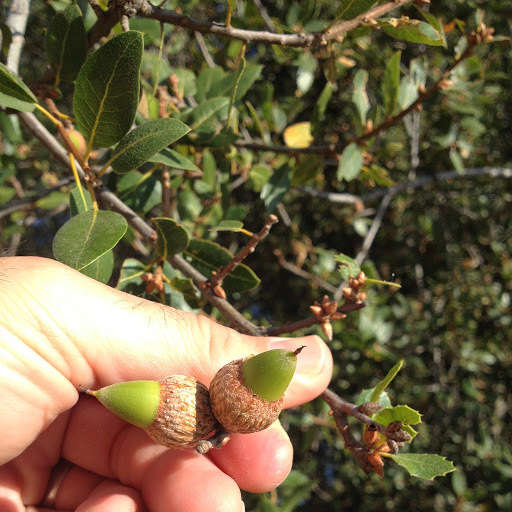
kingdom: Plantae
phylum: Tracheophyta
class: Magnoliopsida
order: Fagales
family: Fagaceae
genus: Quercus
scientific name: Quercus wislizeni
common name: Interior live oak
